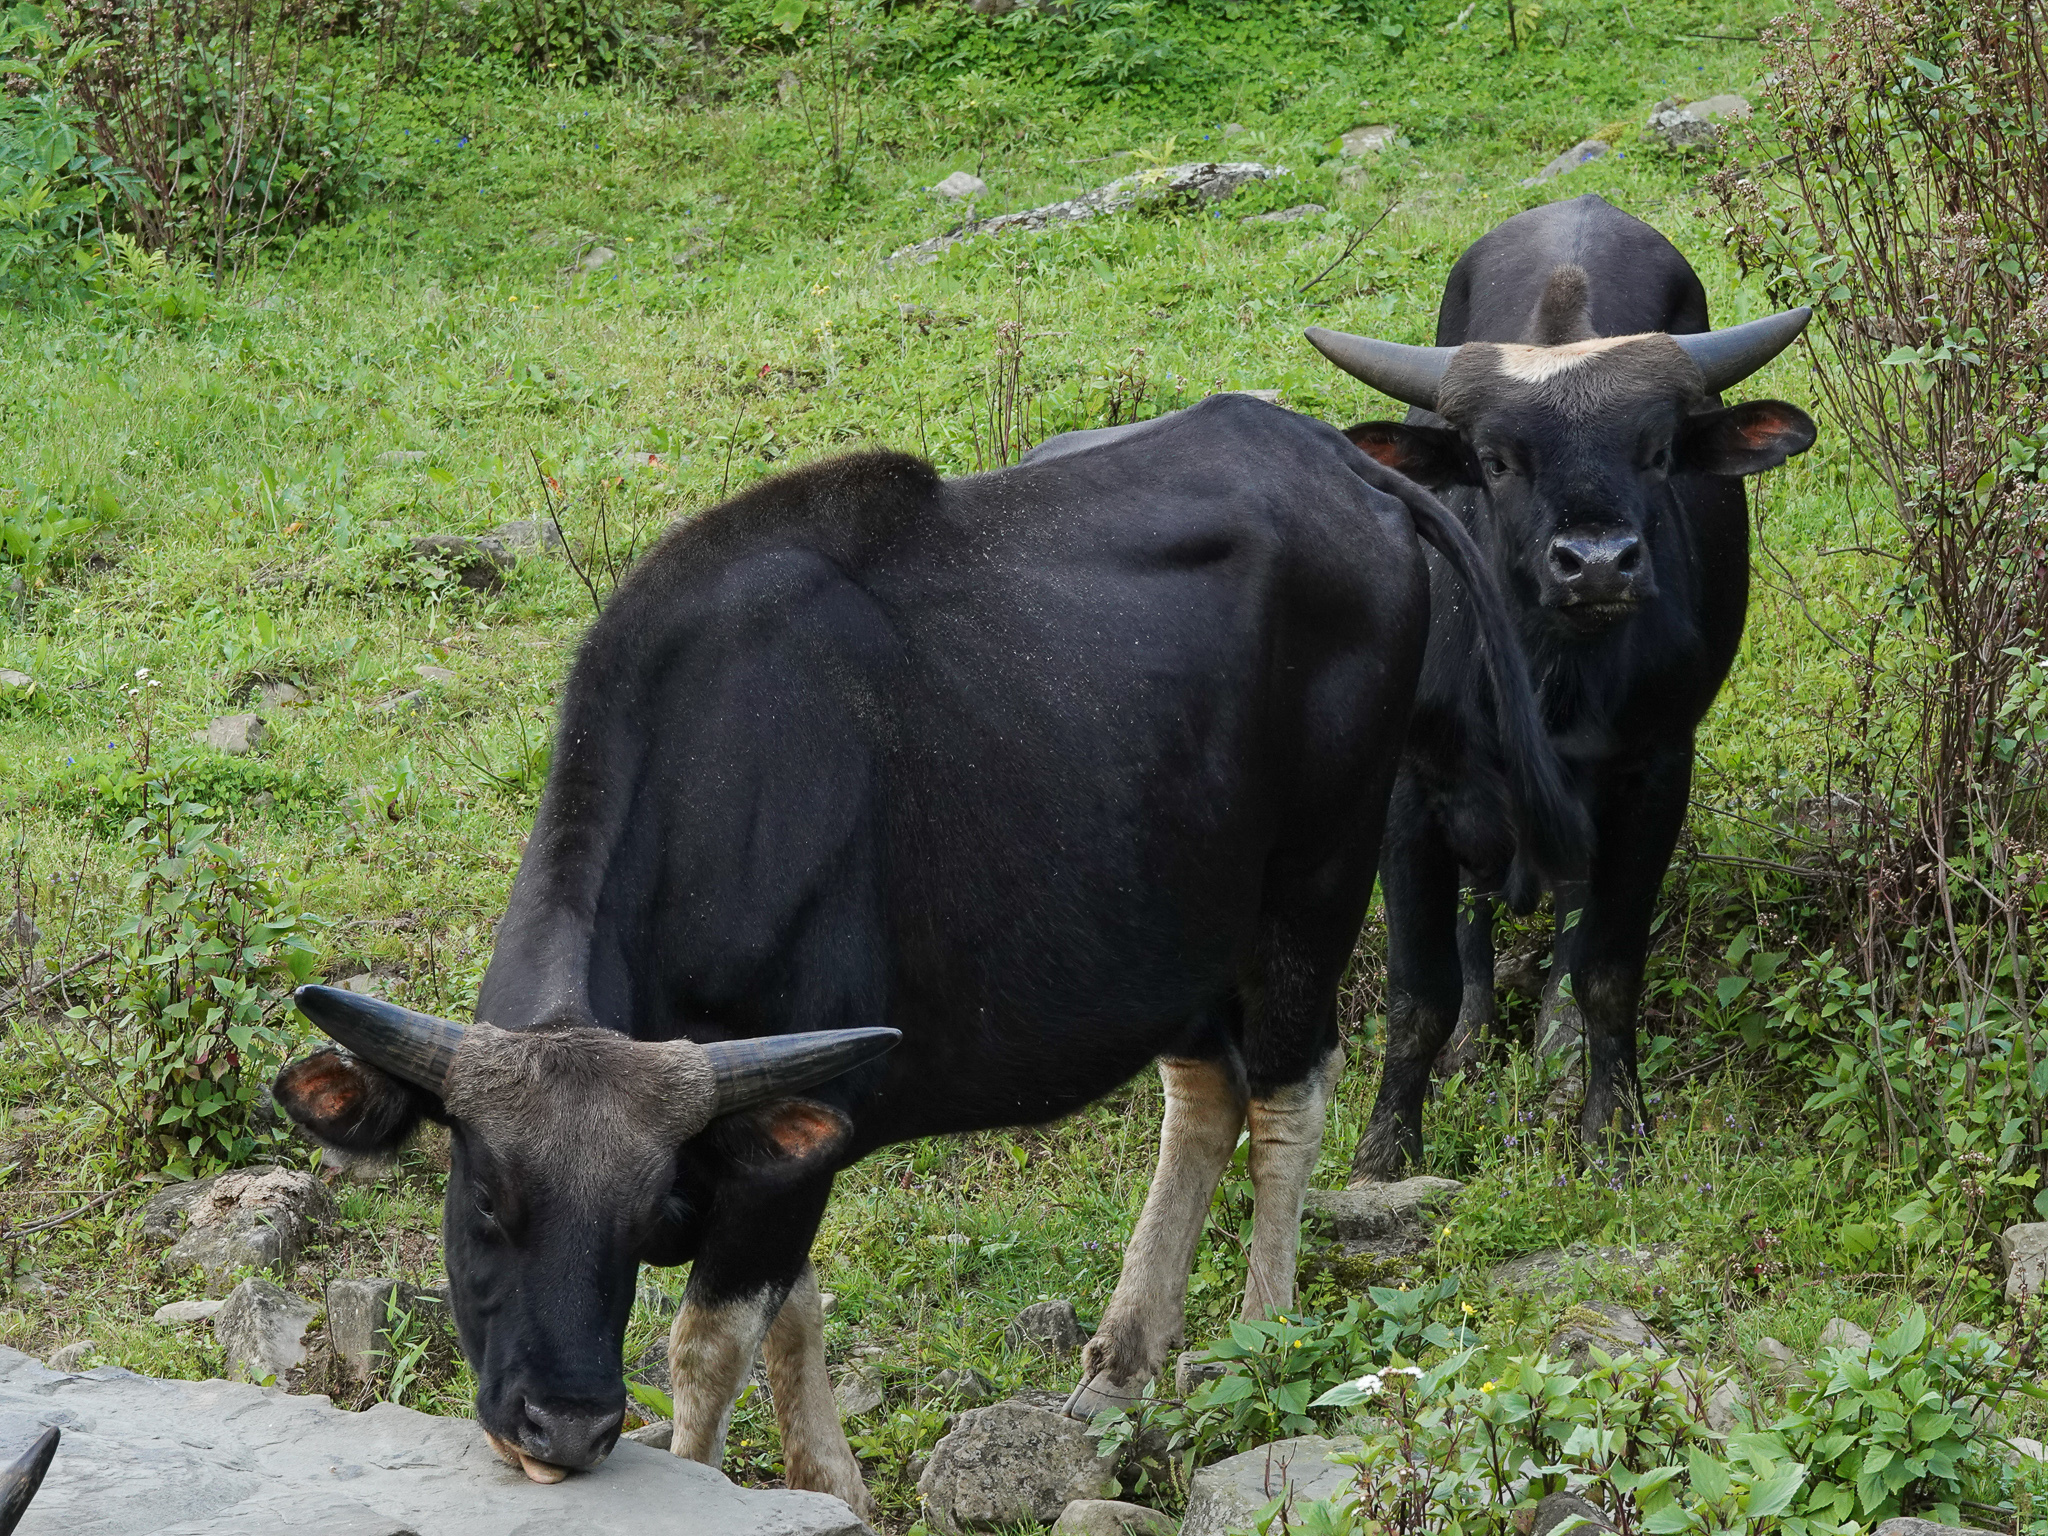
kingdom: Animalia
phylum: Chordata
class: Mammalia
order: Artiodactyla
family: Bovidae
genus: Bos
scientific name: Bos frontalis
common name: Gaur
